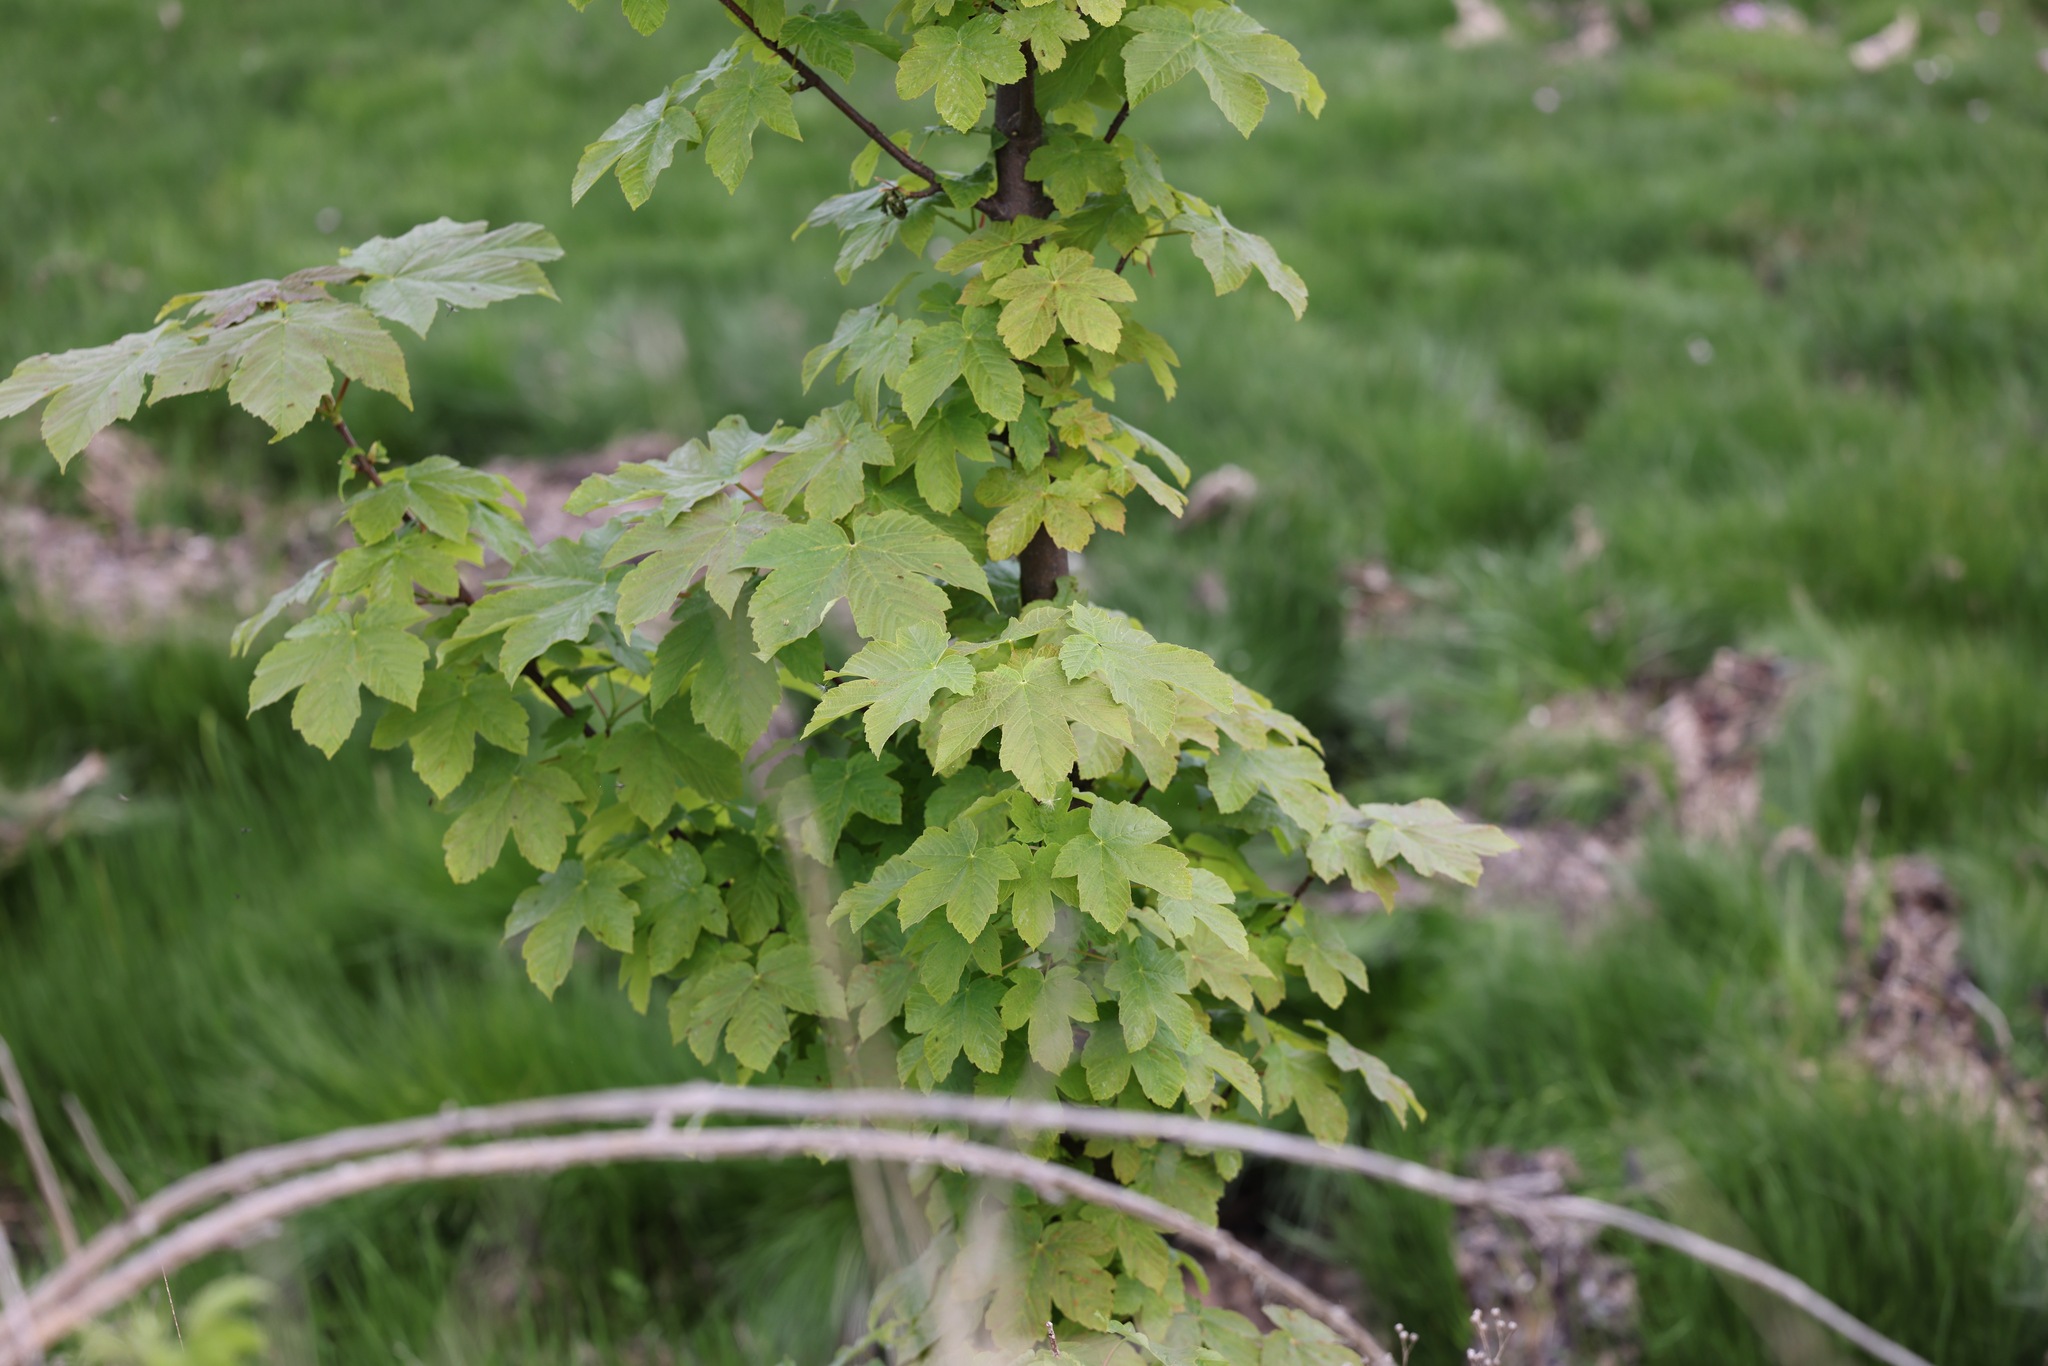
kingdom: Plantae
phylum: Tracheophyta
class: Magnoliopsida
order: Sapindales
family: Sapindaceae
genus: Acer
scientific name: Acer pseudoplatanus
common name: Sycamore
